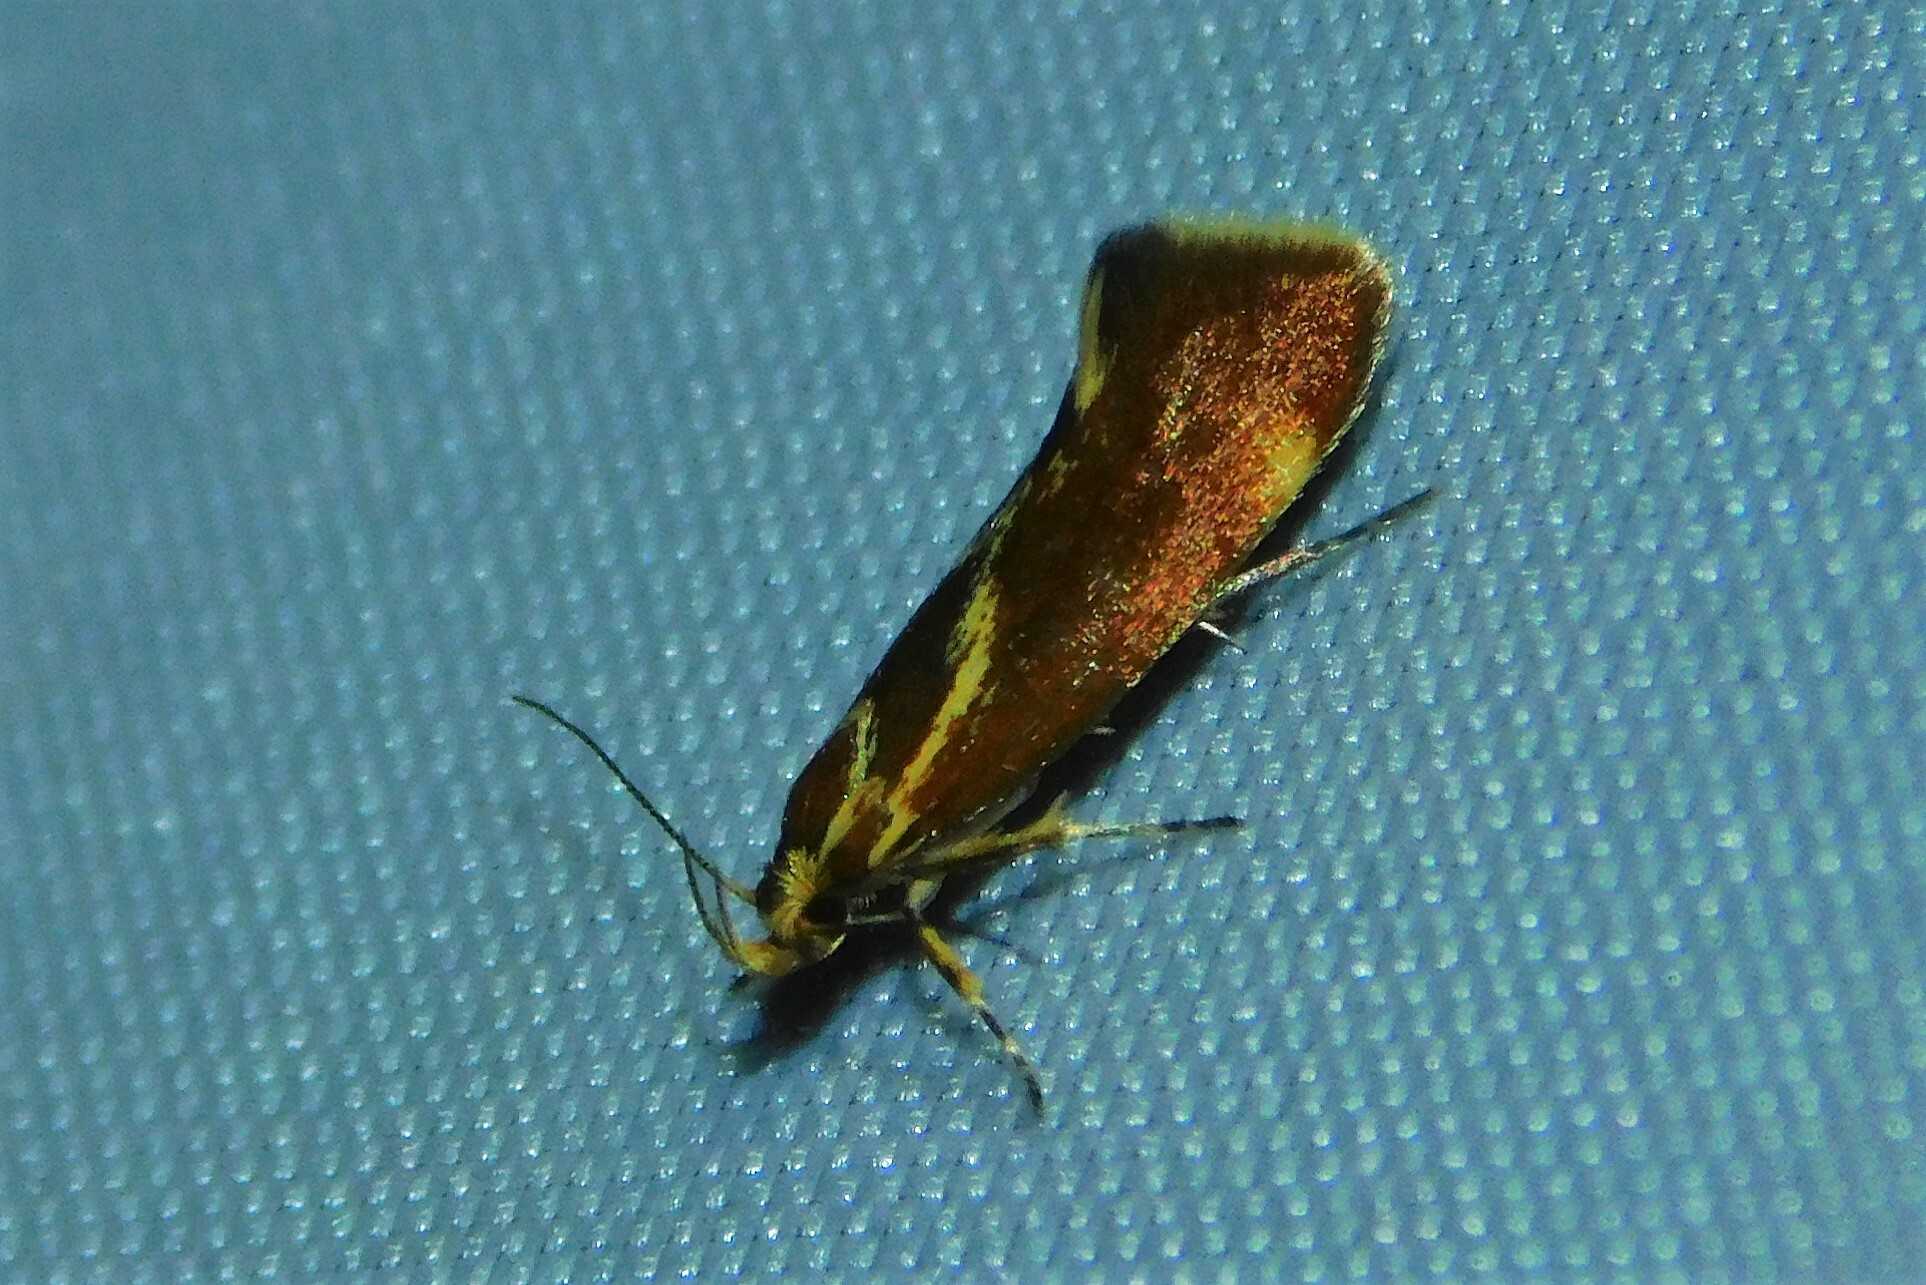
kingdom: Animalia
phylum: Arthropoda
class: Insecta
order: Lepidoptera
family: Oecophoridae
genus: Borkhausenia
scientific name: Borkhausenia italica
